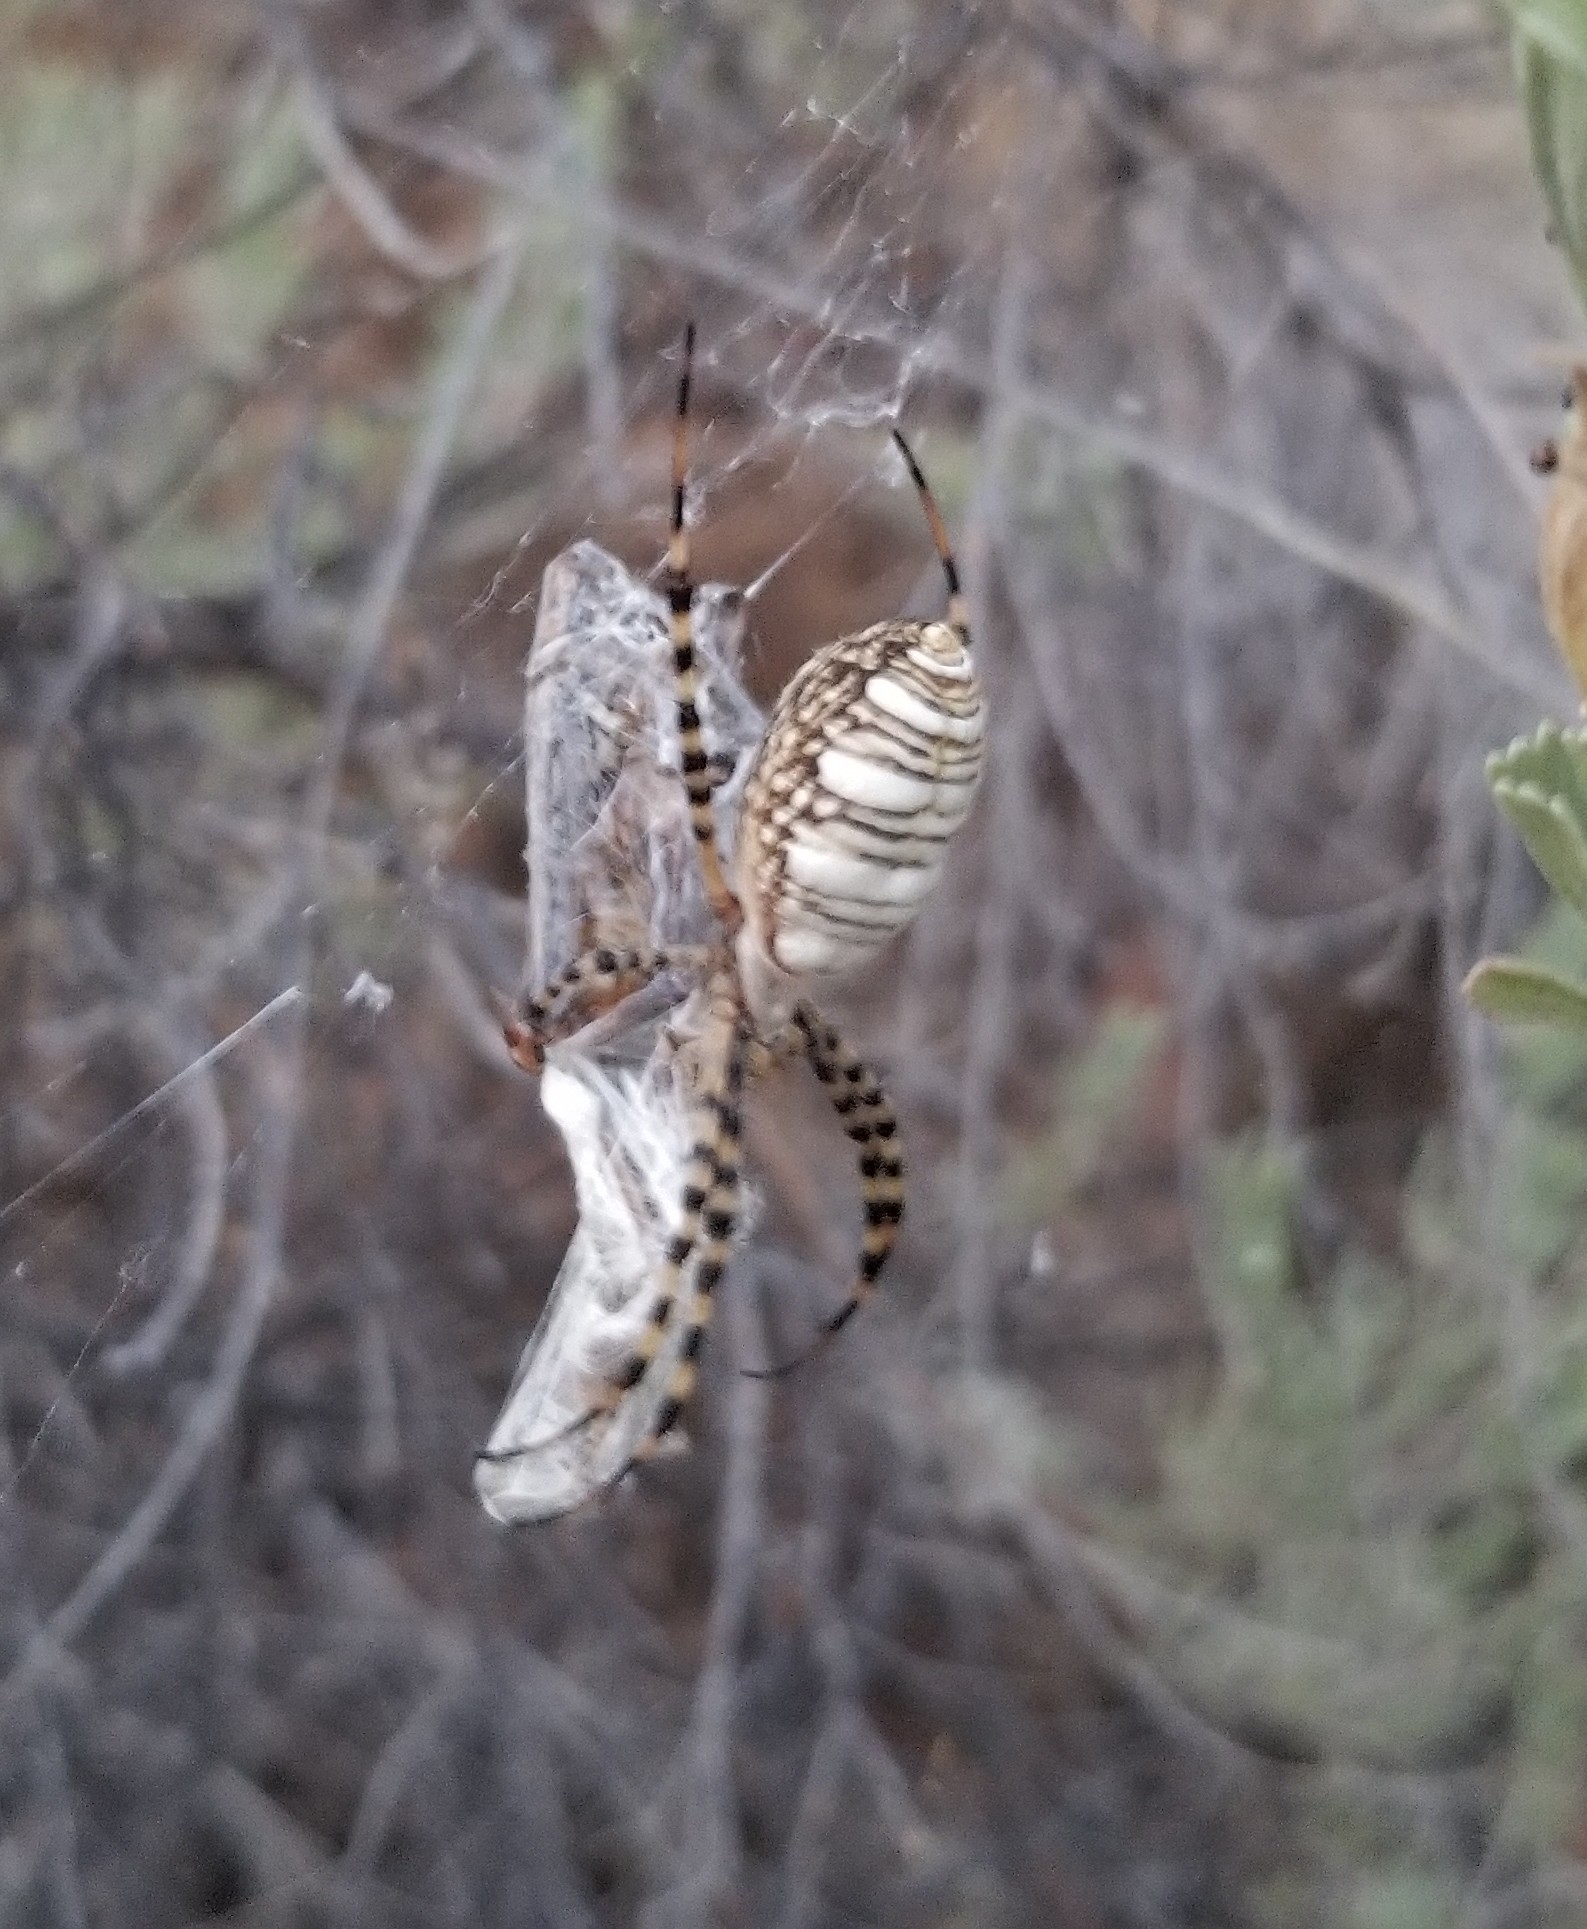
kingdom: Animalia
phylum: Arthropoda
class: Arachnida
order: Araneae
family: Araneidae
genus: Argiope
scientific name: Argiope trifasciata
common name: Banded garden spider
